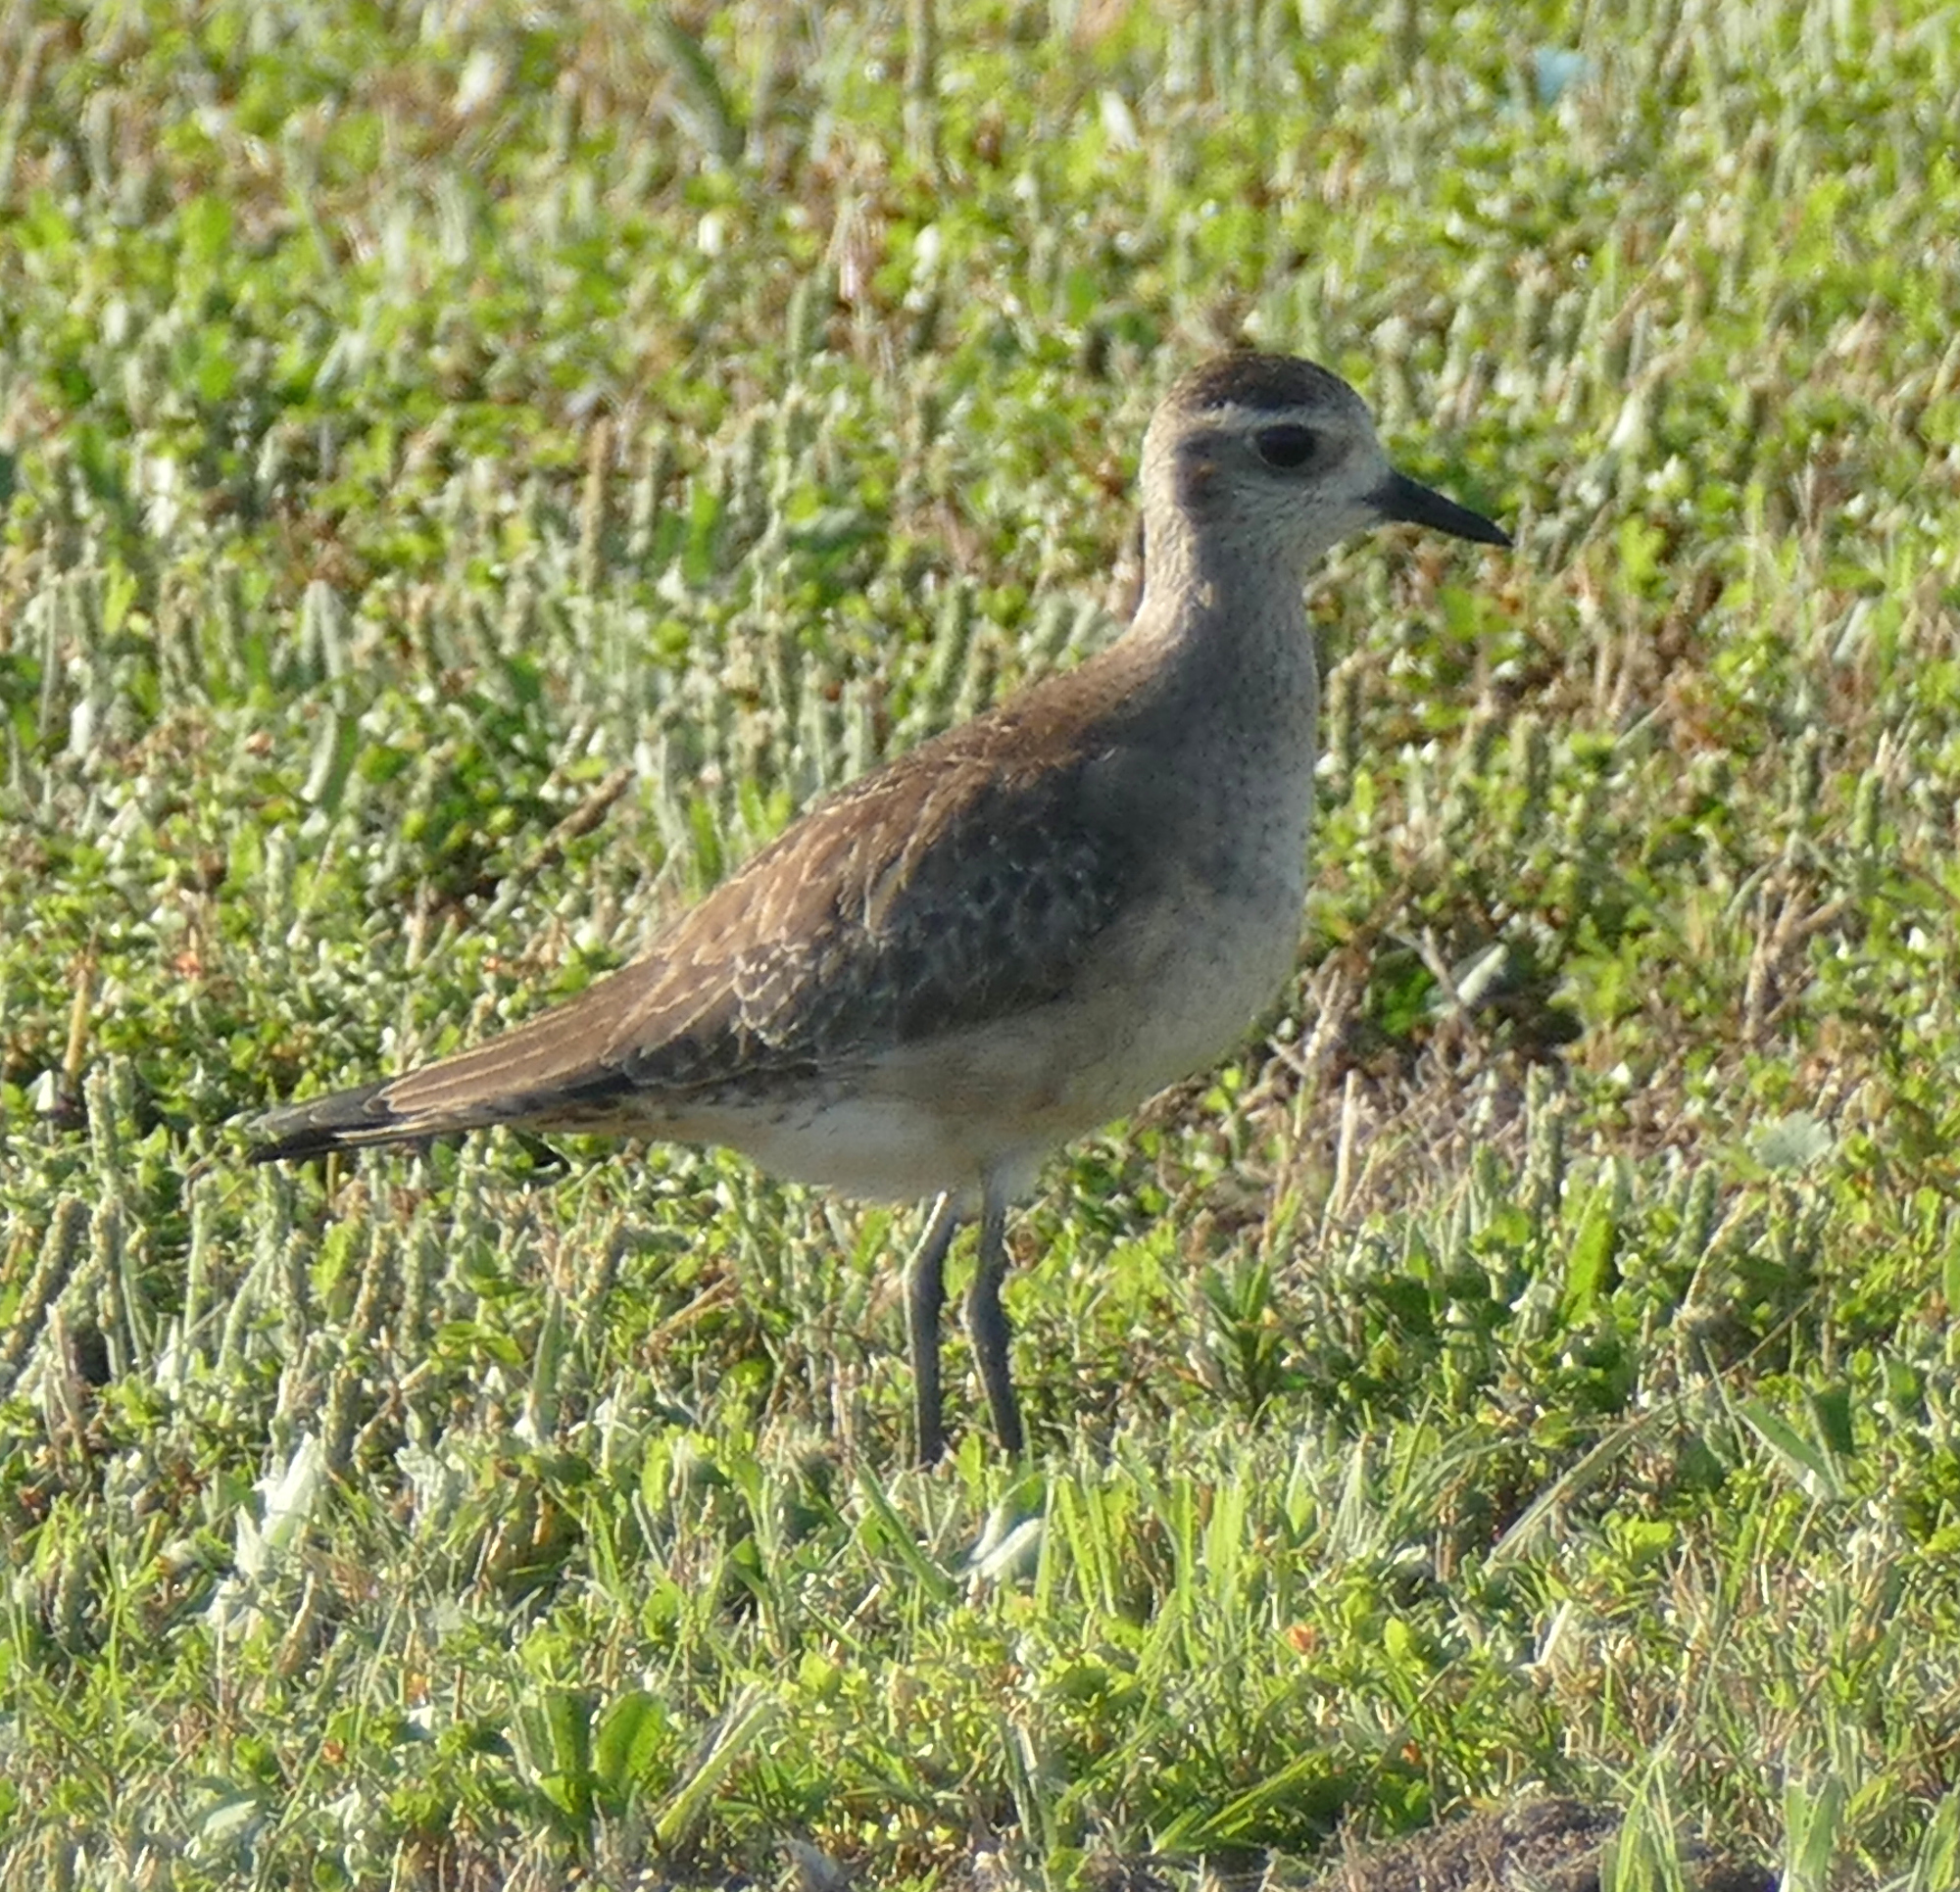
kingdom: Animalia
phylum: Chordata
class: Aves
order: Charadriiformes
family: Charadriidae
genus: Pluvialis
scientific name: Pluvialis dominica
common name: American golden plover
